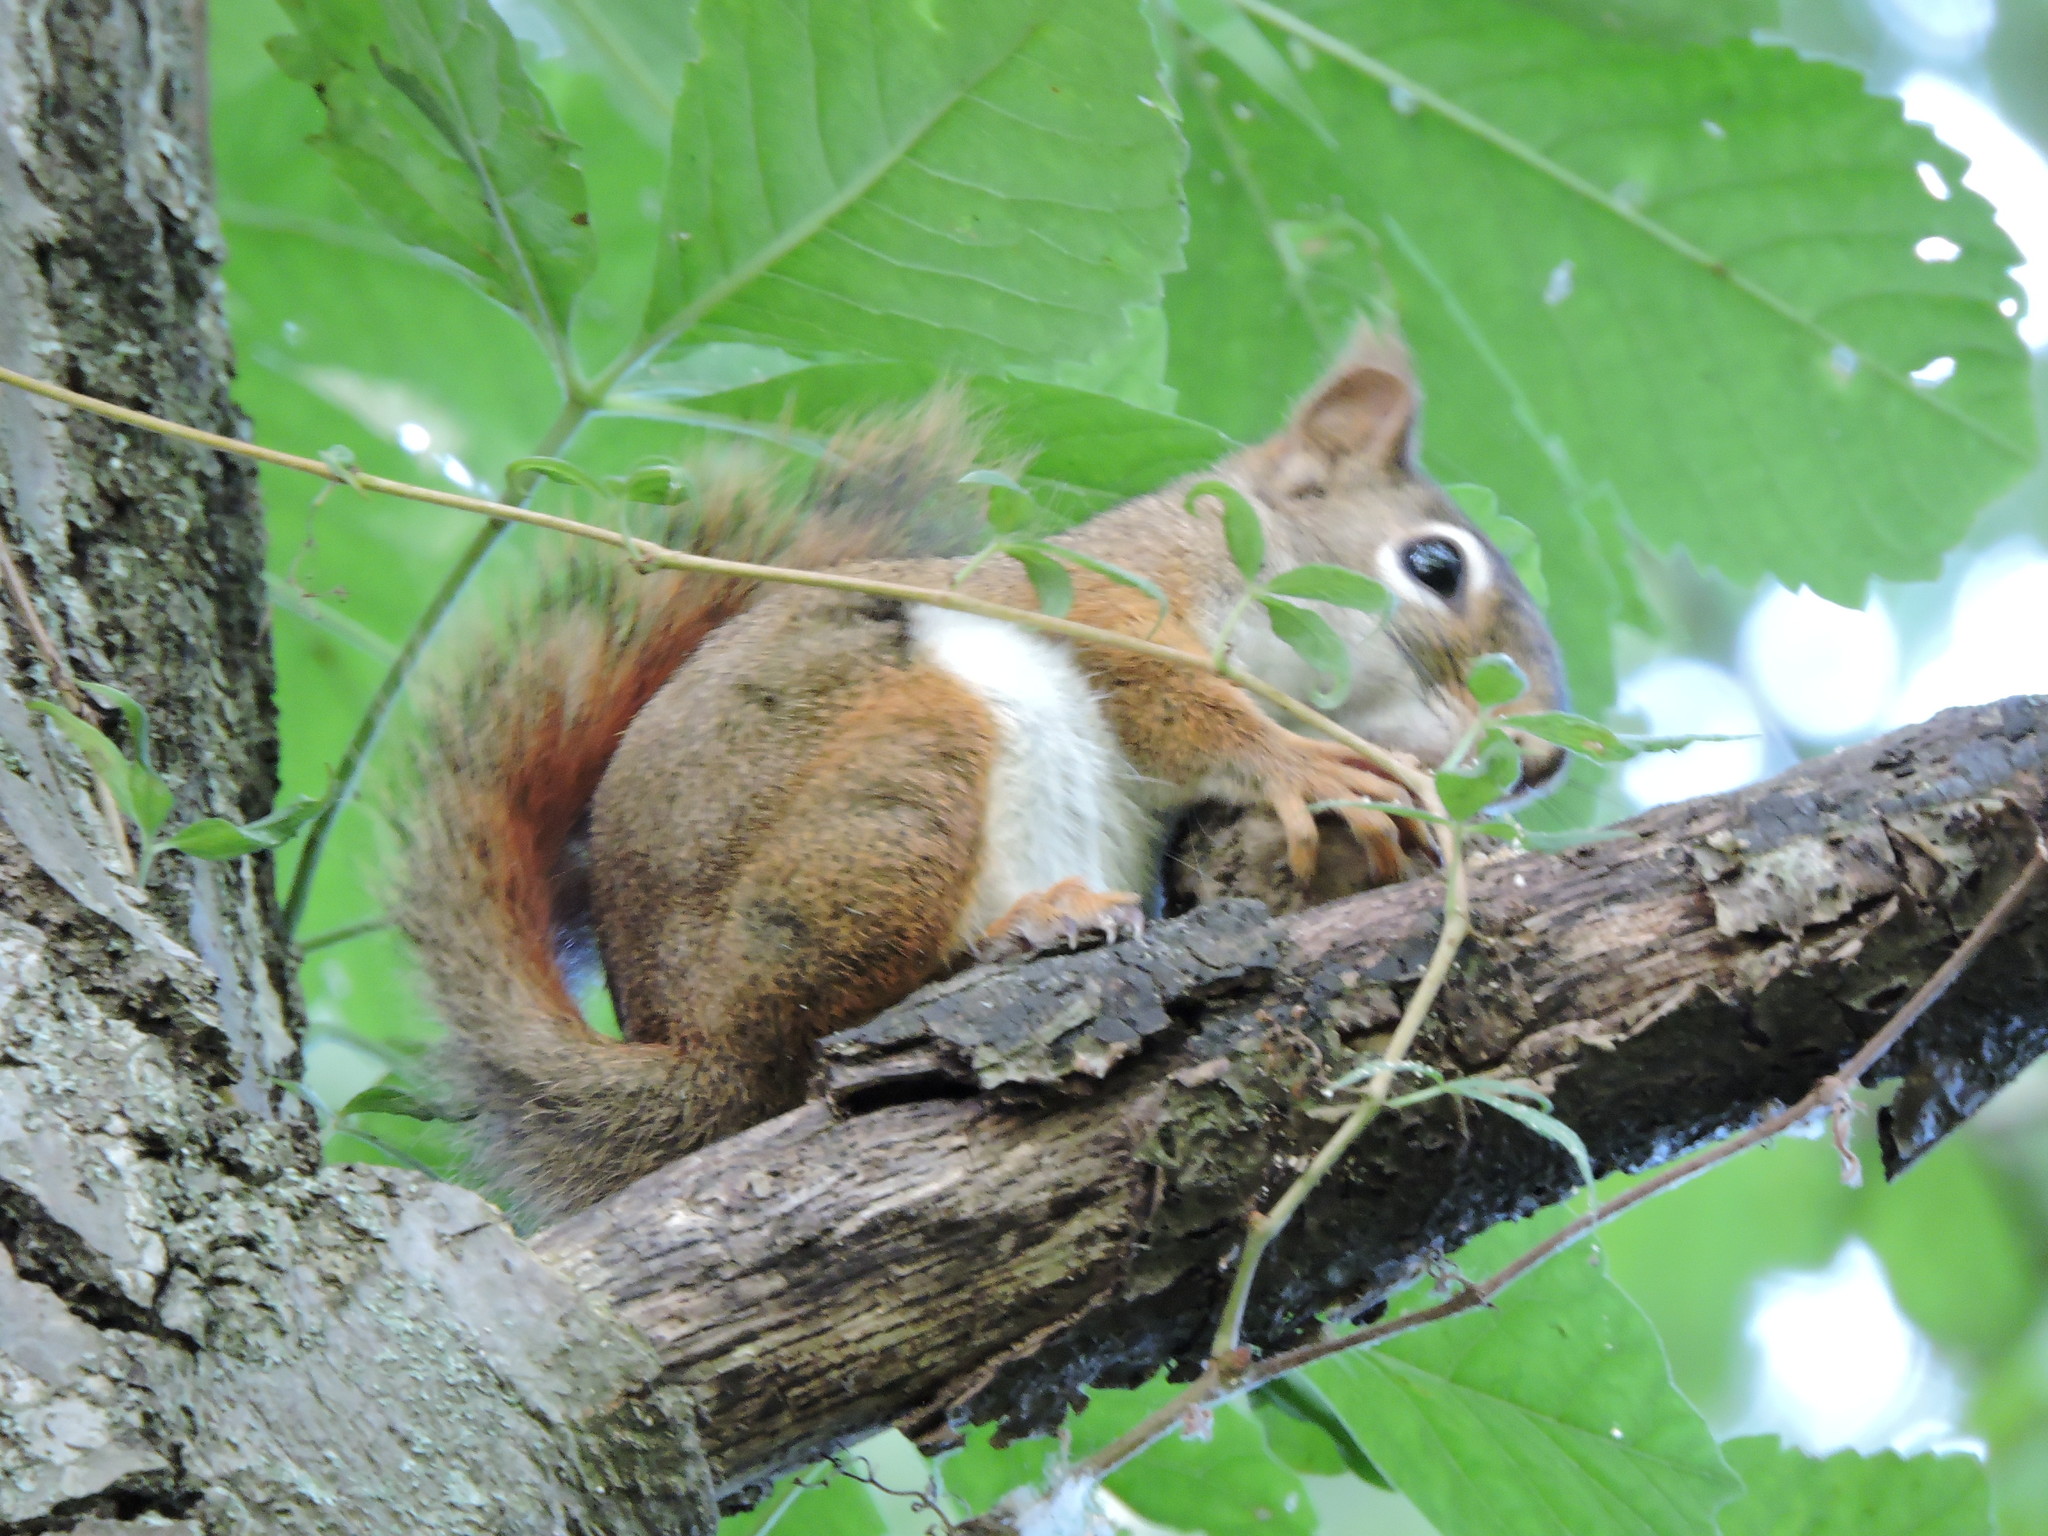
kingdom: Animalia
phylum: Chordata
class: Mammalia
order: Rodentia
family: Sciuridae
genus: Tamiasciurus
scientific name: Tamiasciurus hudsonicus
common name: Red squirrel
